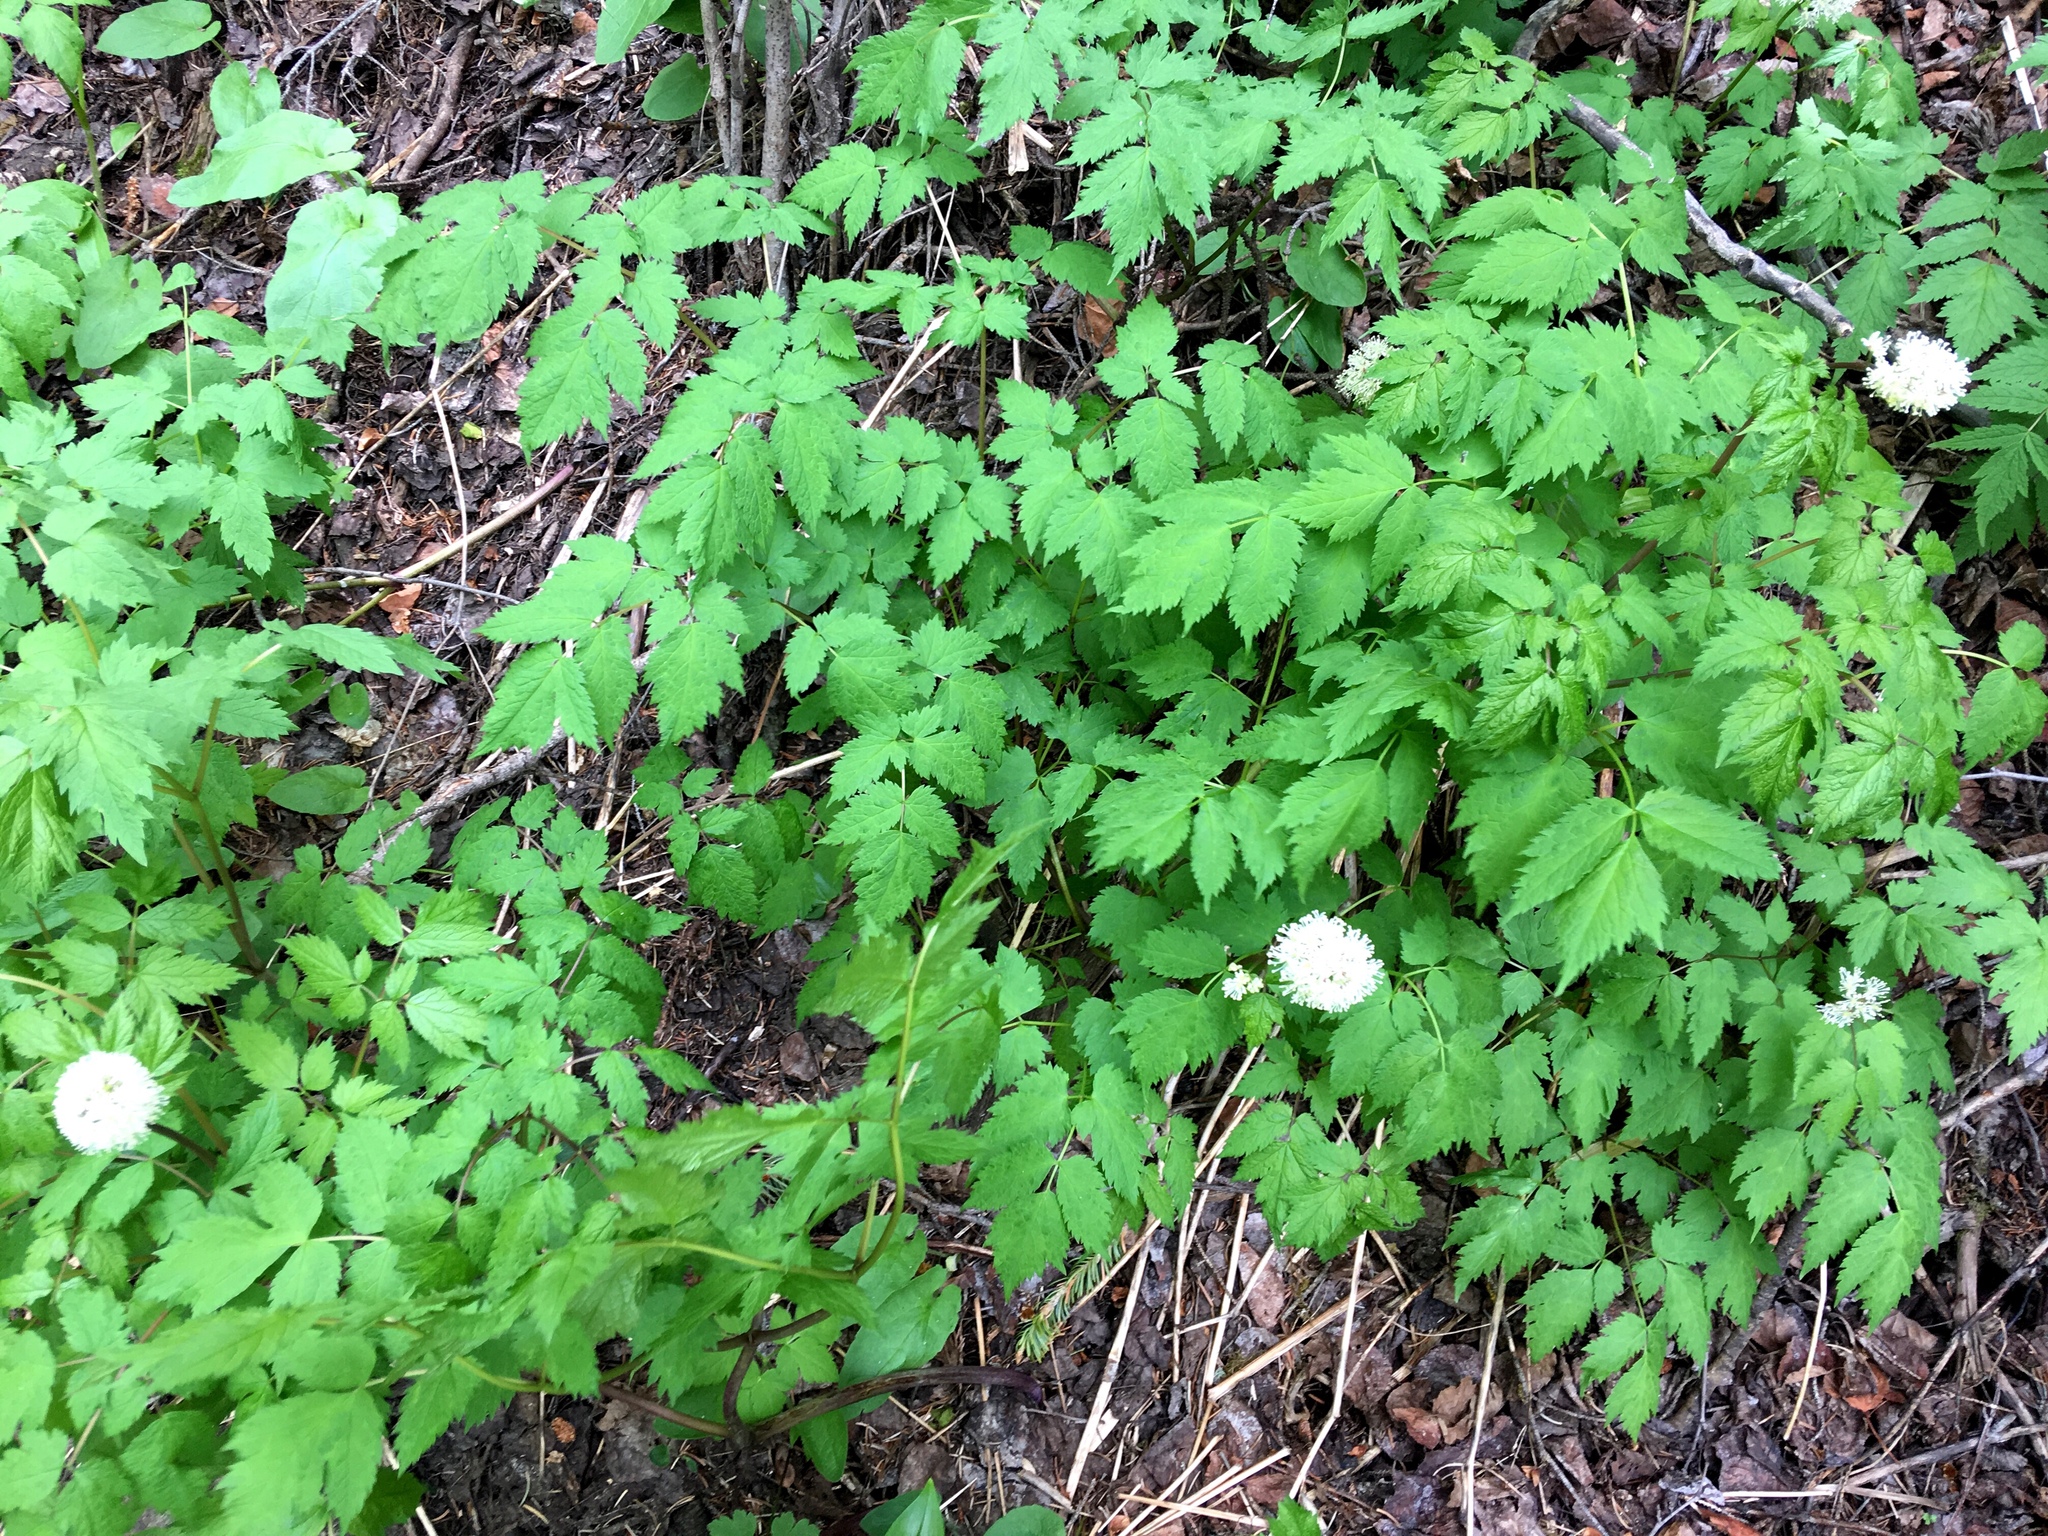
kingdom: Plantae
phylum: Tracheophyta
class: Magnoliopsida
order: Ranunculales
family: Ranunculaceae
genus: Actaea
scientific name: Actaea rubra
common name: Red baneberry
